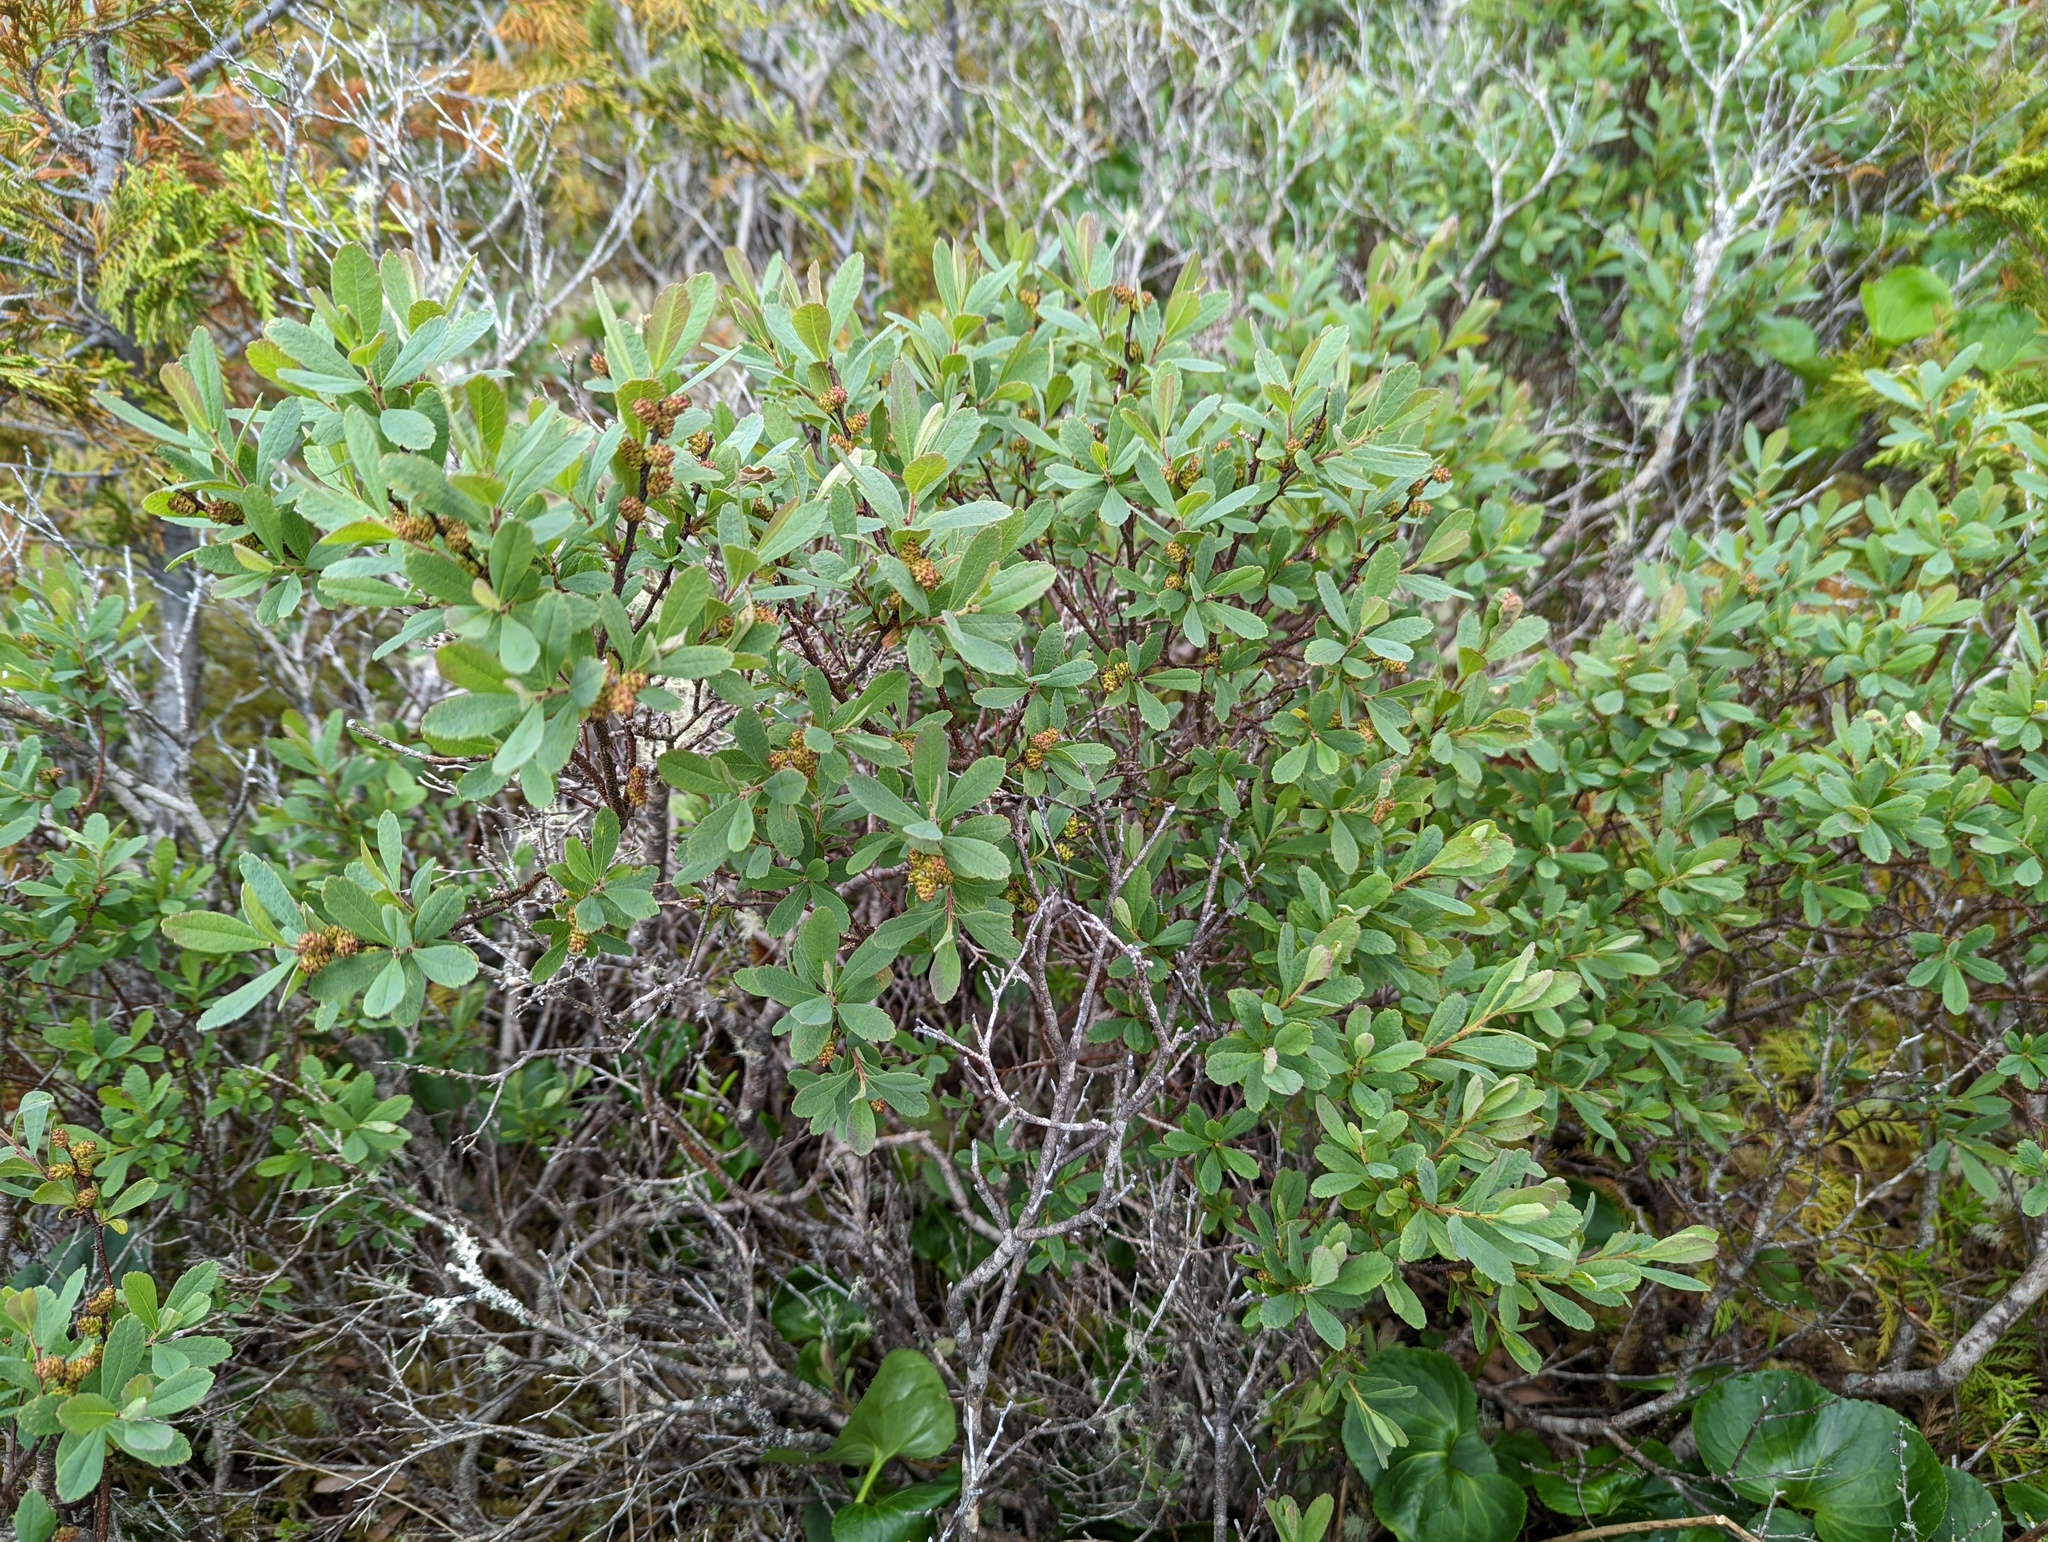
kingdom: Plantae
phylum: Tracheophyta
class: Magnoliopsida
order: Fagales
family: Myricaceae
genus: Myrica
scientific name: Myrica gale
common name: Sweet gale
